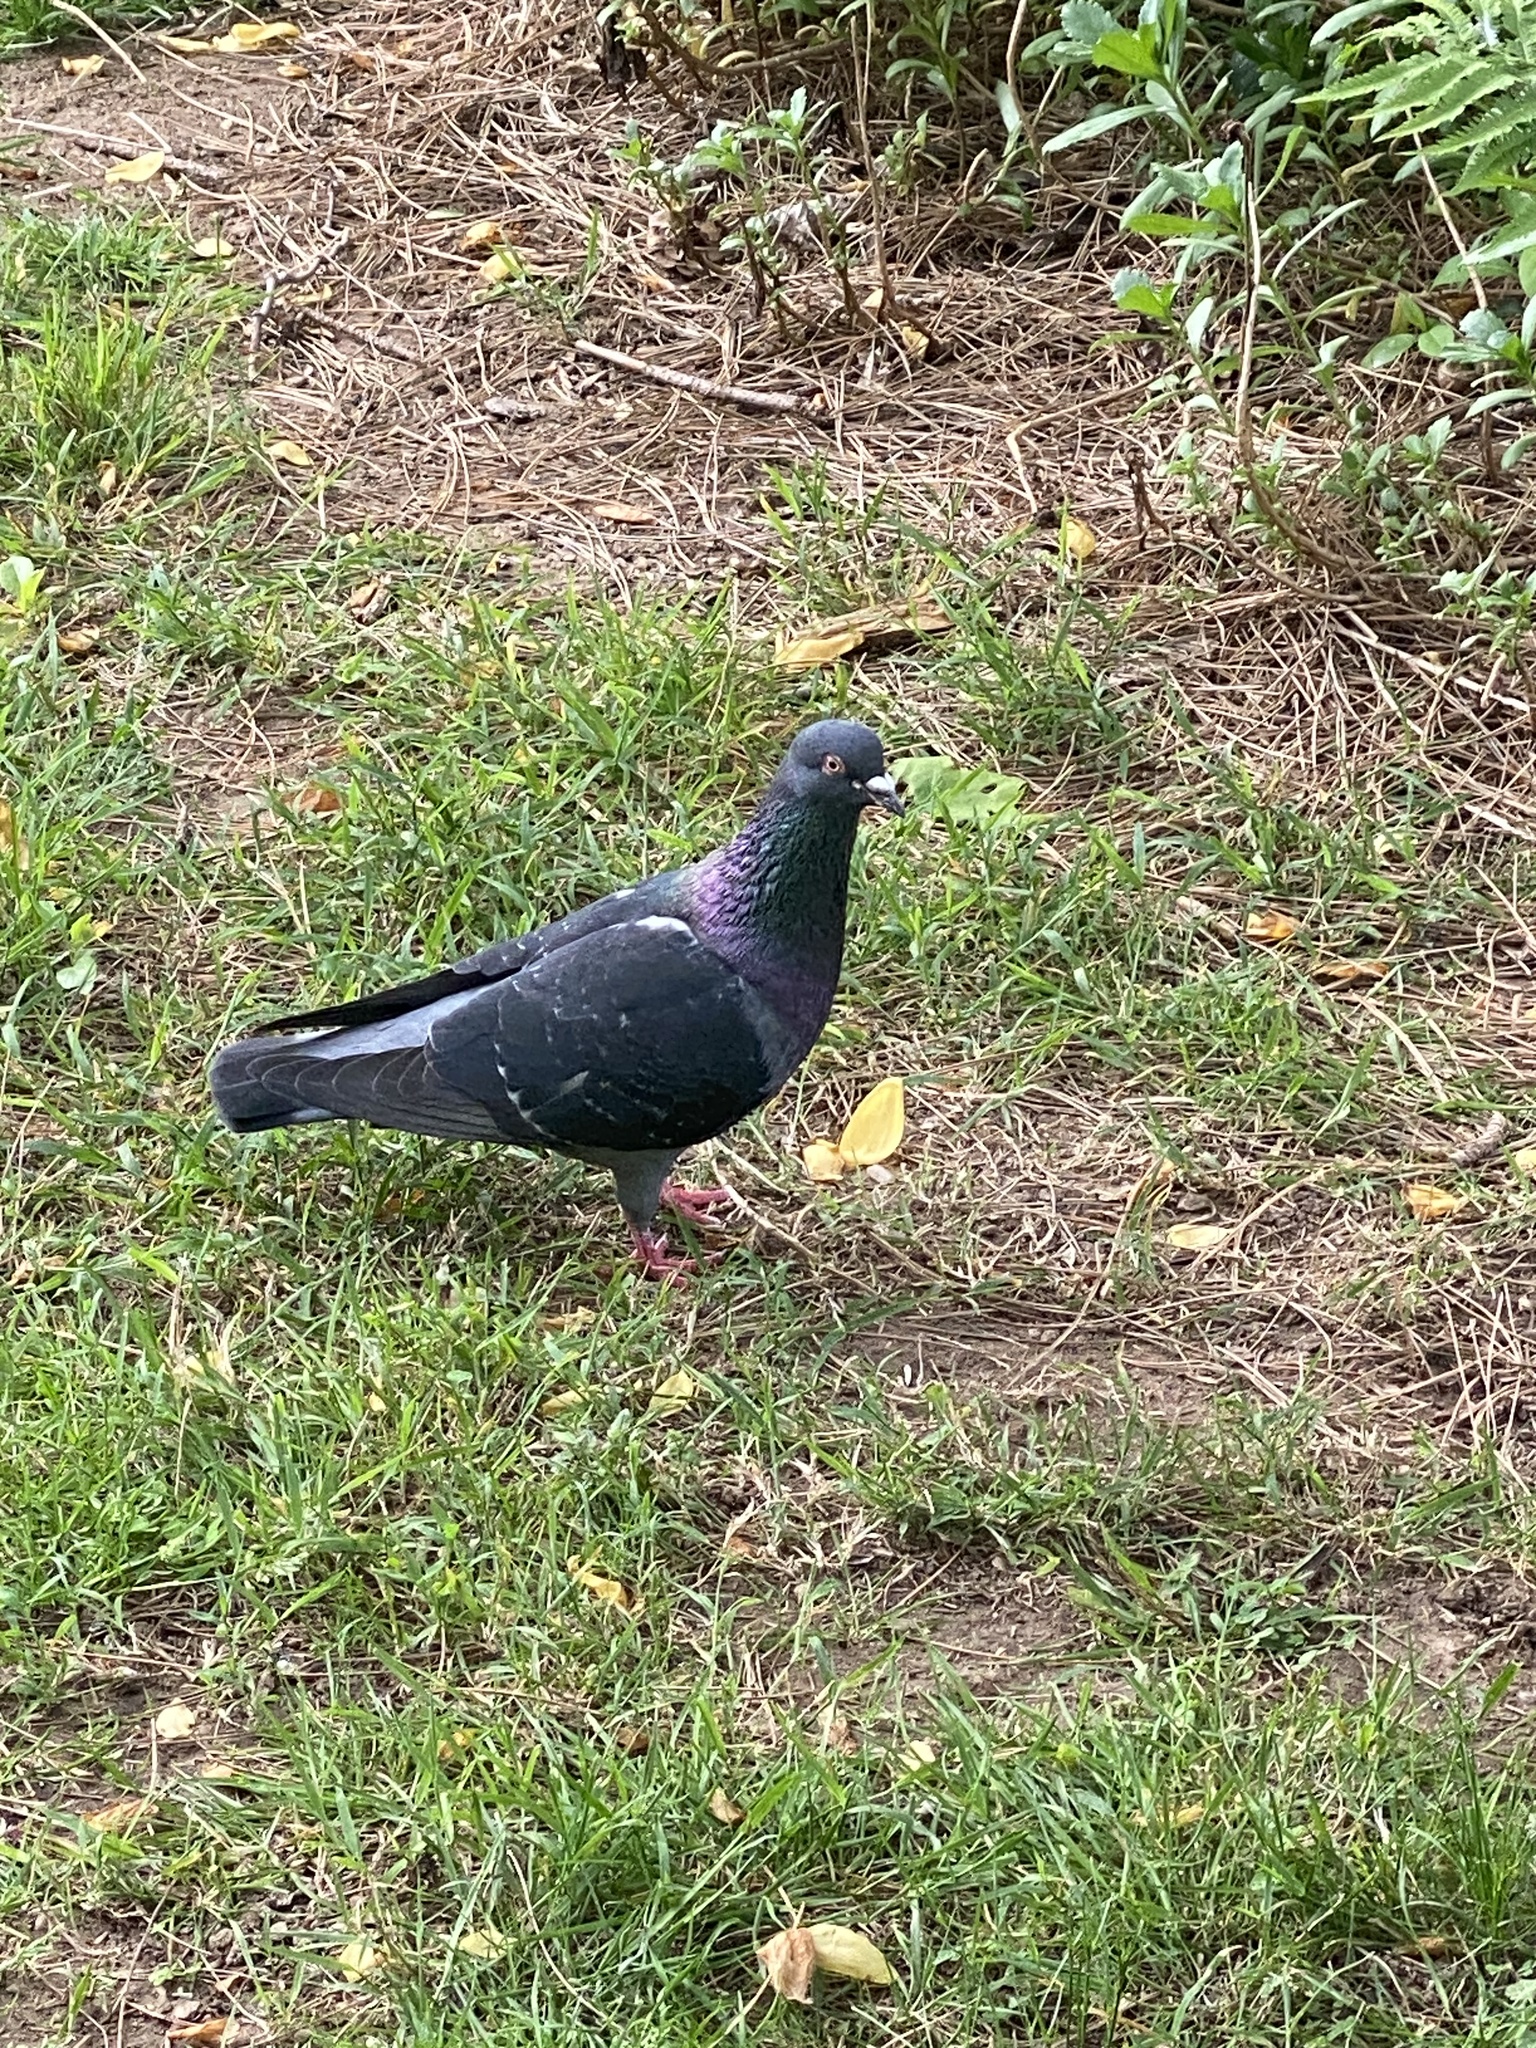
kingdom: Animalia
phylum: Chordata
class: Aves
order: Columbiformes
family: Columbidae
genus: Columba
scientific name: Columba livia
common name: Rock pigeon
